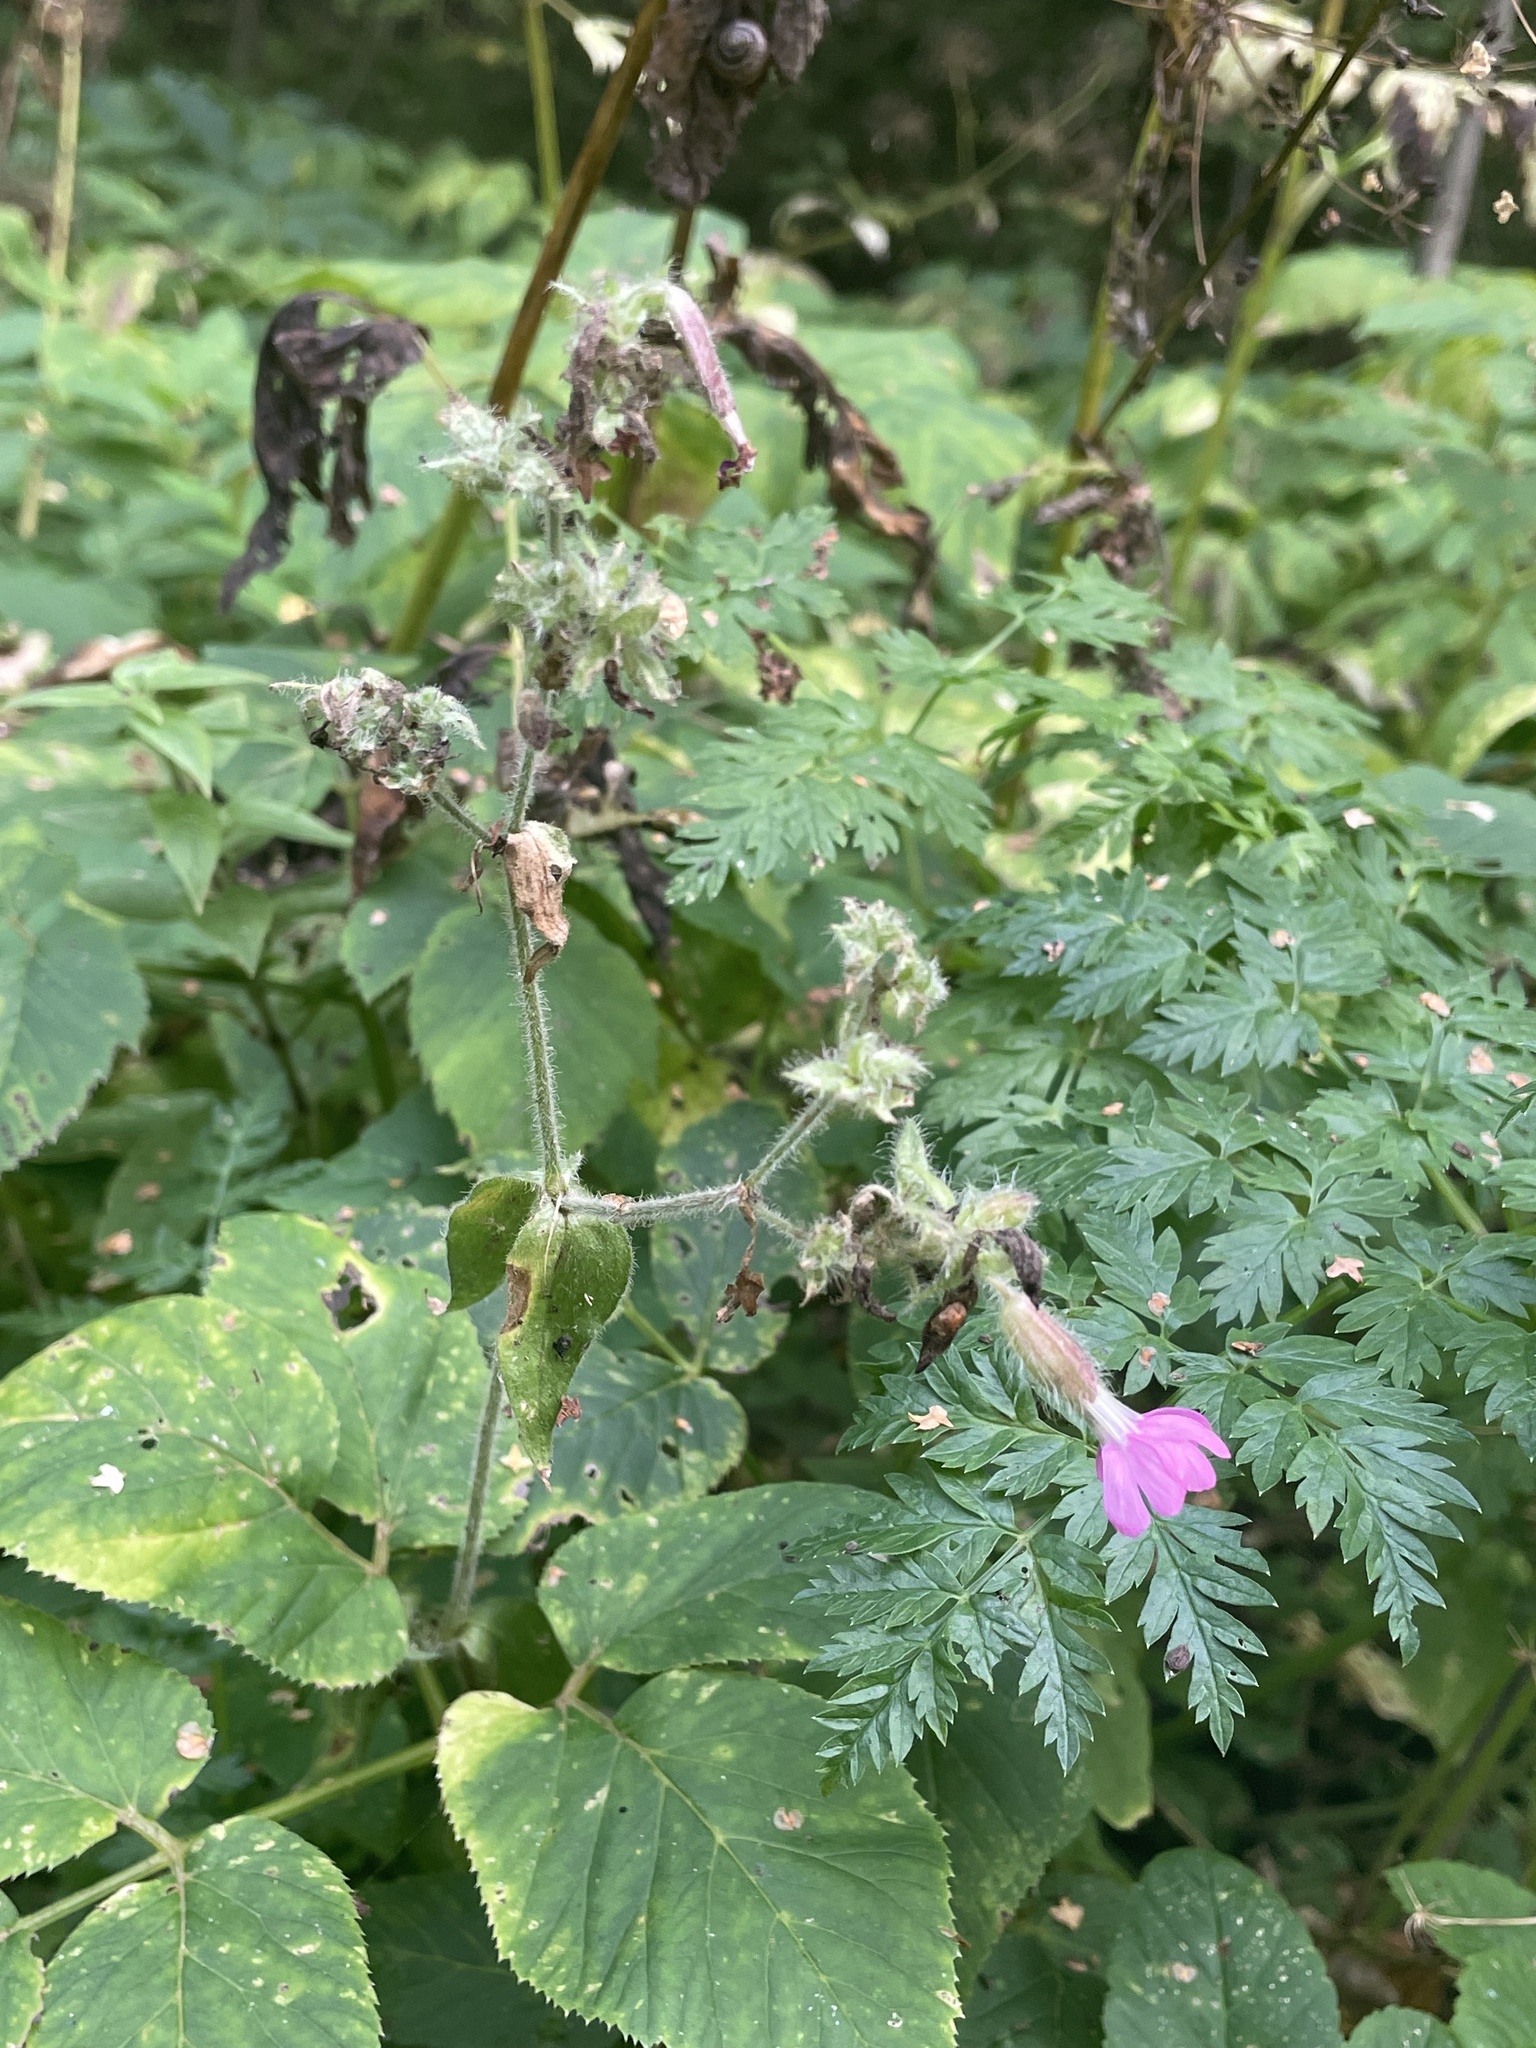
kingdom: Plantae
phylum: Tracheophyta
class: Magnoliopsida
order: Caryophyllales
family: Caryophyllaceae
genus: Silene
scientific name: Silene dioica
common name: Red campion
